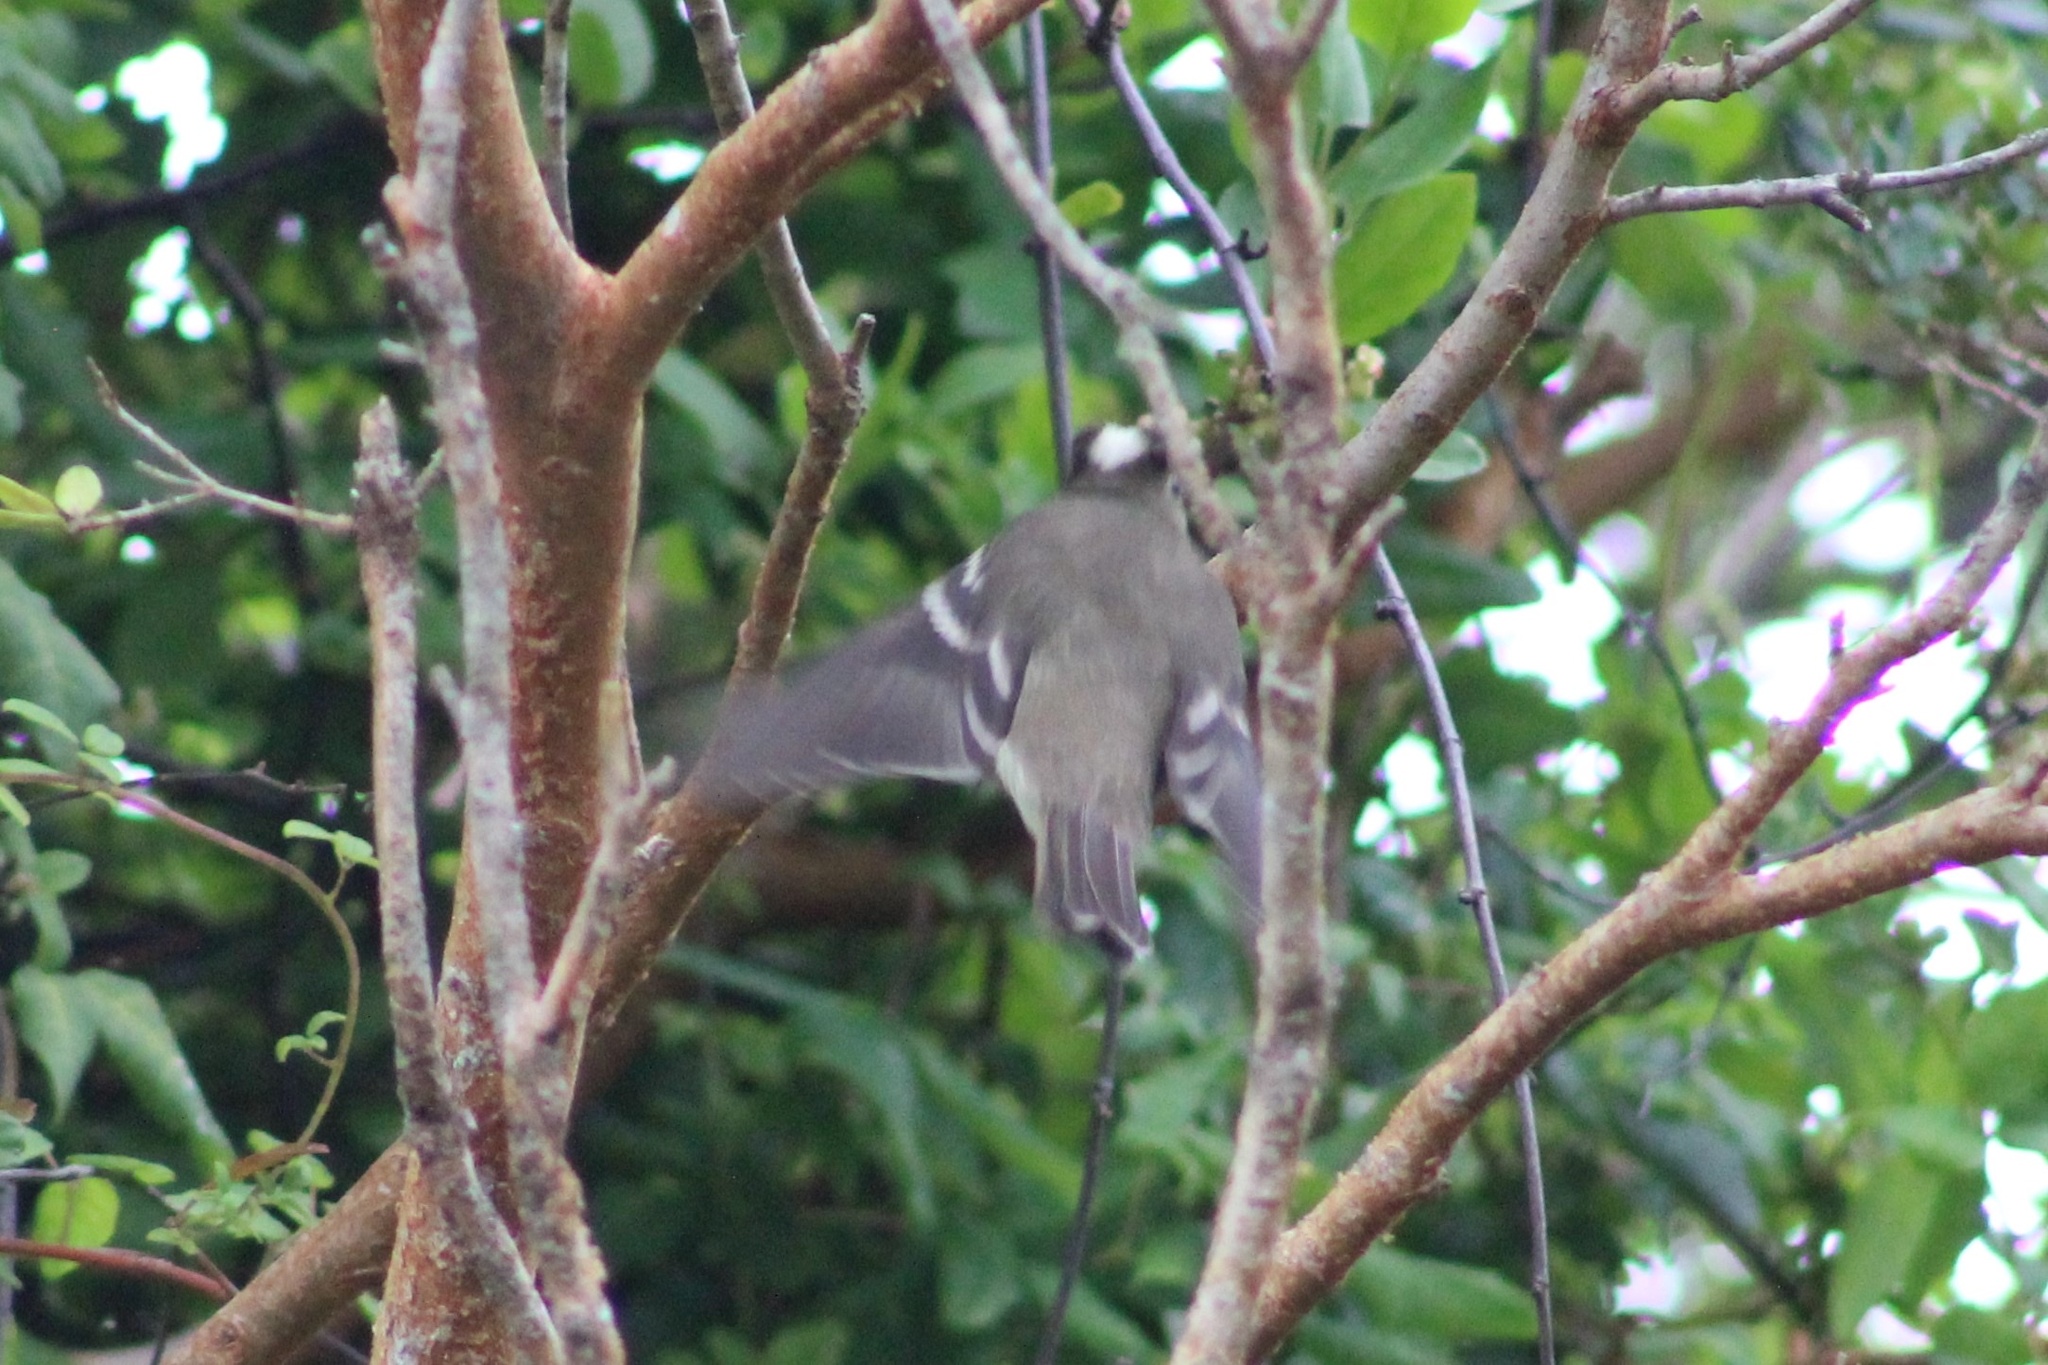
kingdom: Animalia
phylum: Chordata
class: Aves
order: Passeriformes
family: Tyrannidae
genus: Elaenia
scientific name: Elaenia albiceps
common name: White-crested elaenia
